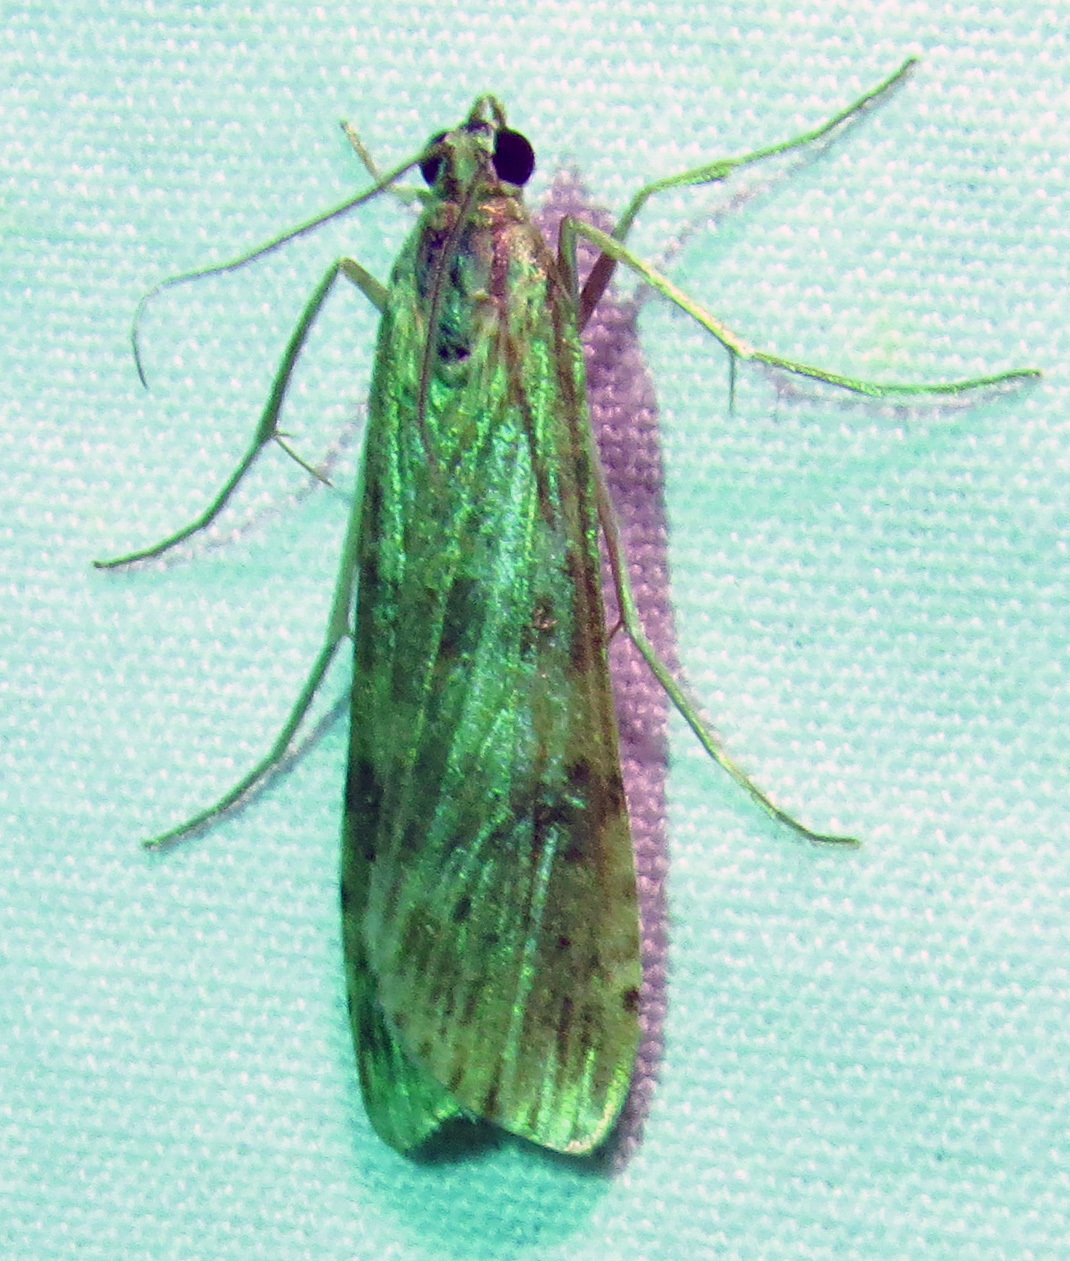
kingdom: Animalia
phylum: Arthropoda
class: Insecta
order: Lepidoptera
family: Crambidae
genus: Nomophila
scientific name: Nomophila nearctica
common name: American rush veneer
